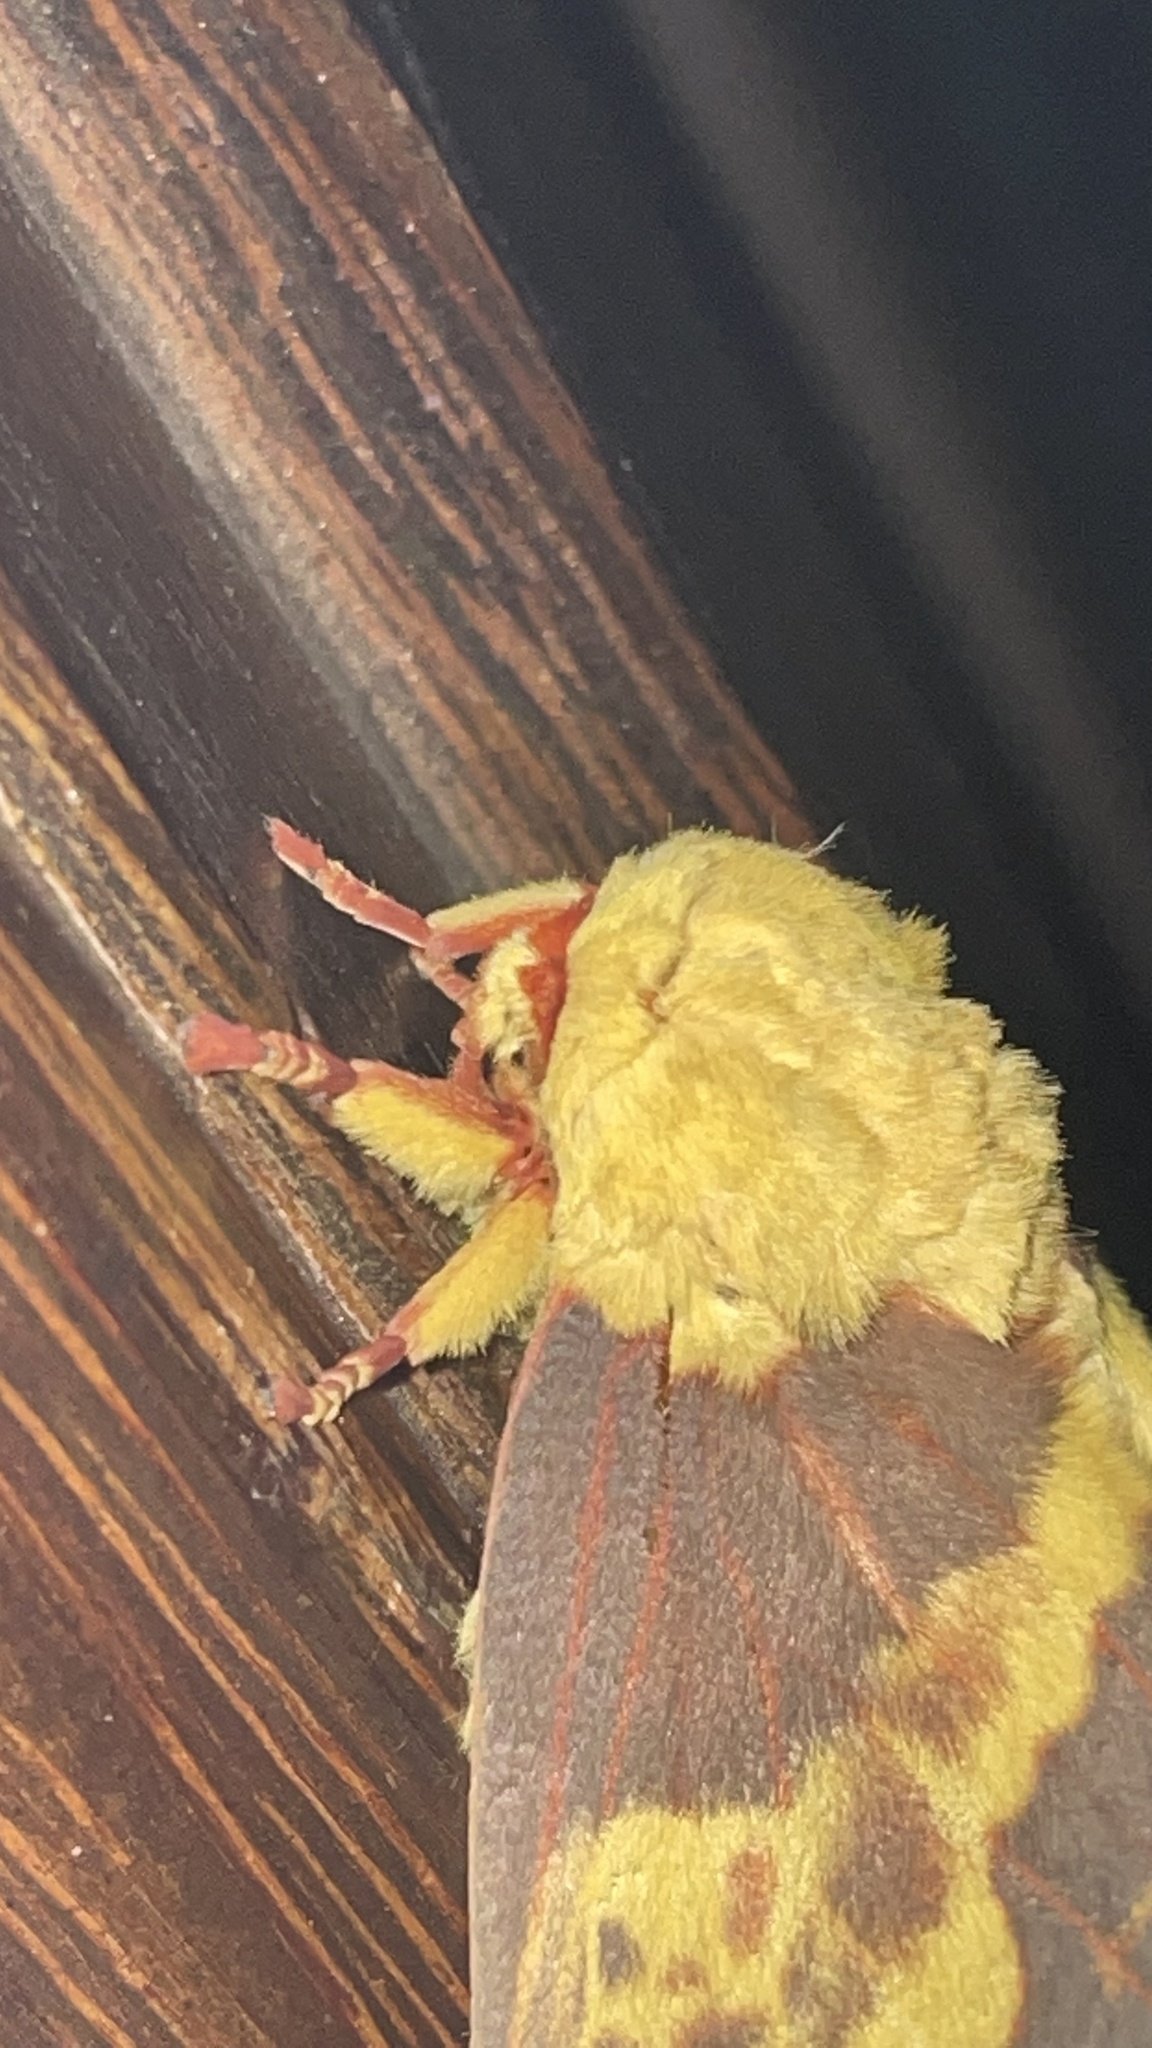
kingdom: Animalia
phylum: Arthropoda
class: Insecta
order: Lepidoptera
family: Saturniidae
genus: Citheronia
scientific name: Citheronia laocoon
